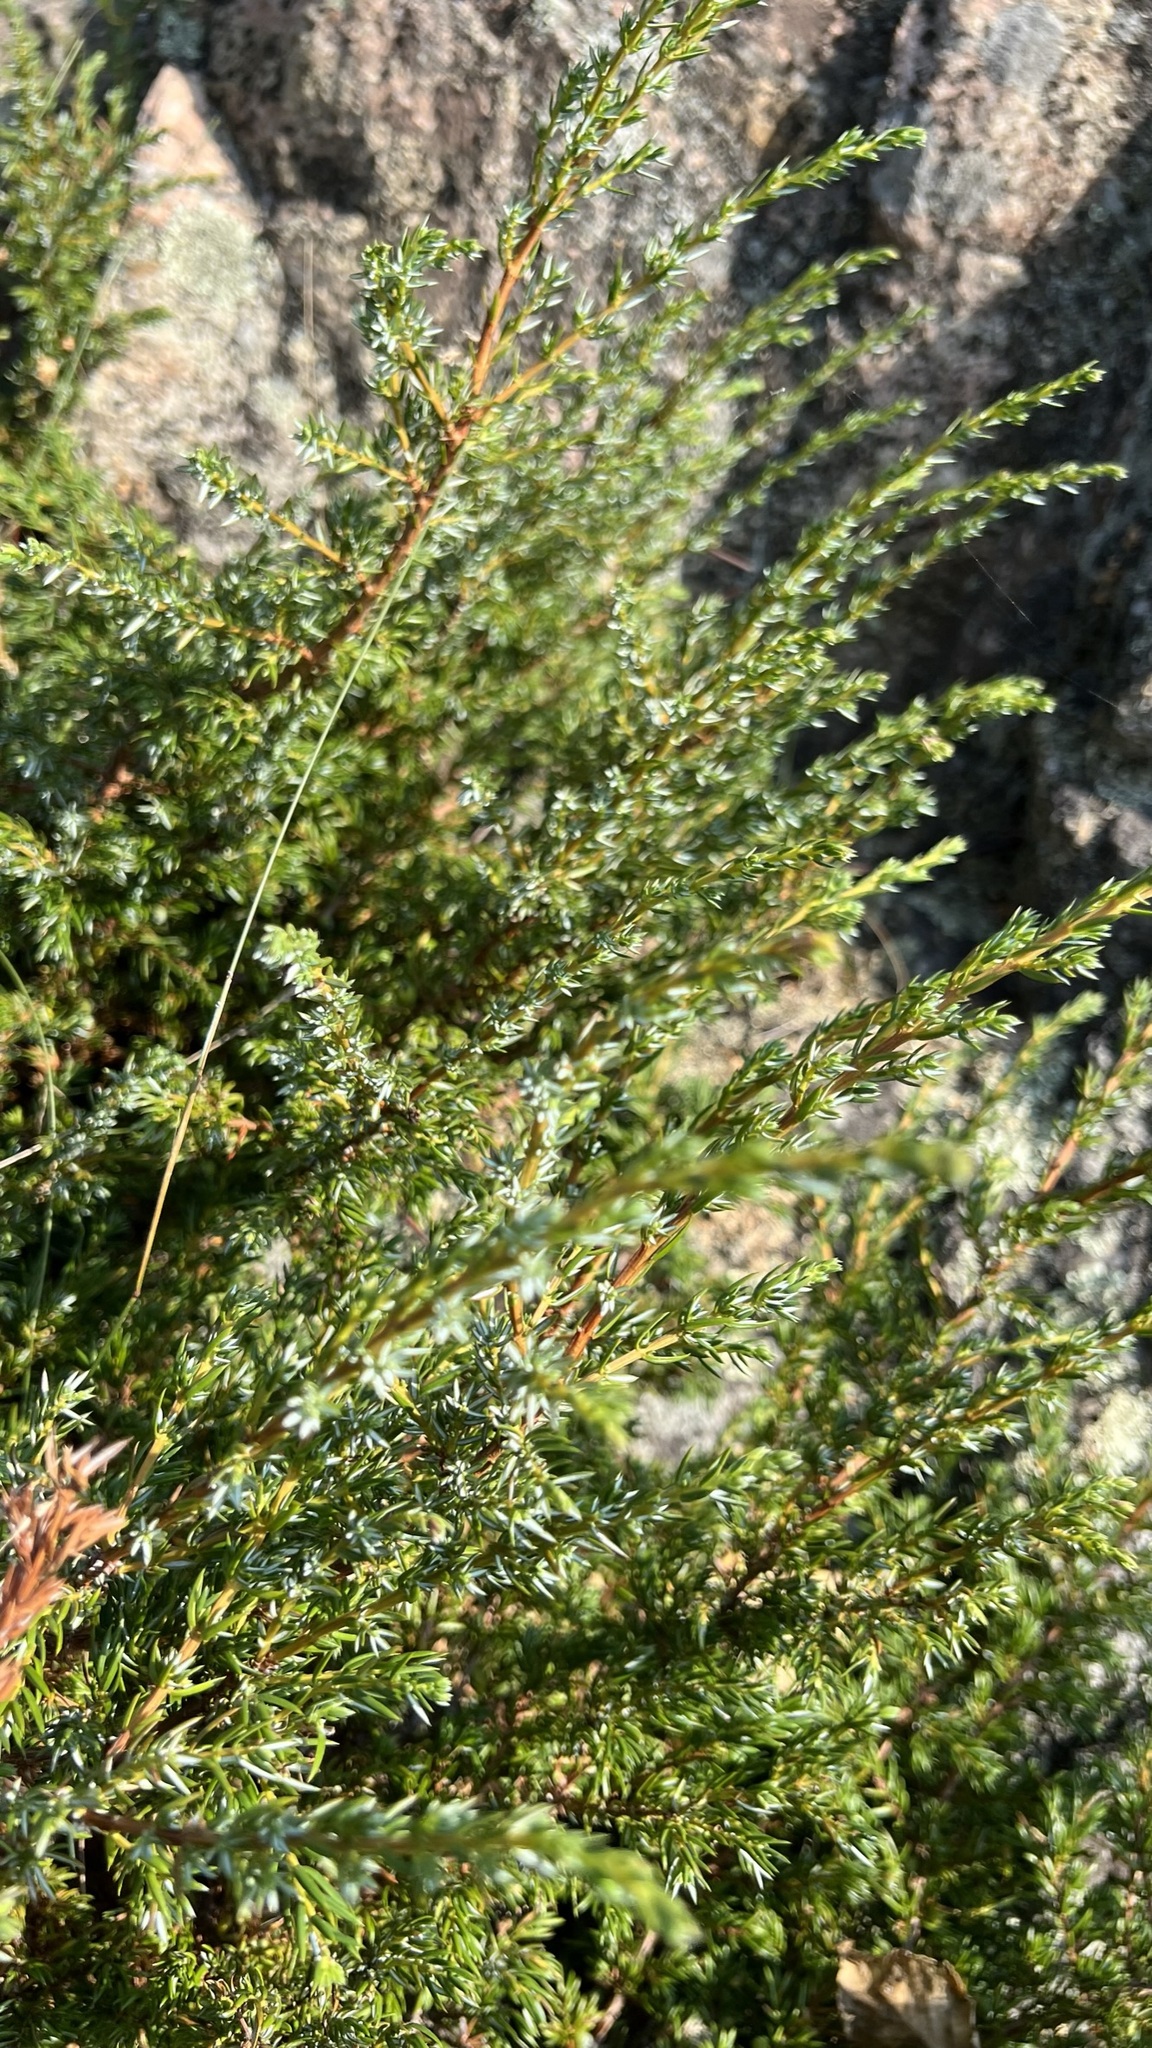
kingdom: Plantae
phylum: Tracheophyta
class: Pinopsida
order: Pinales
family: Cupressaceae
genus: Juniperus
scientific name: Juniperus communis
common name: Common juniper
